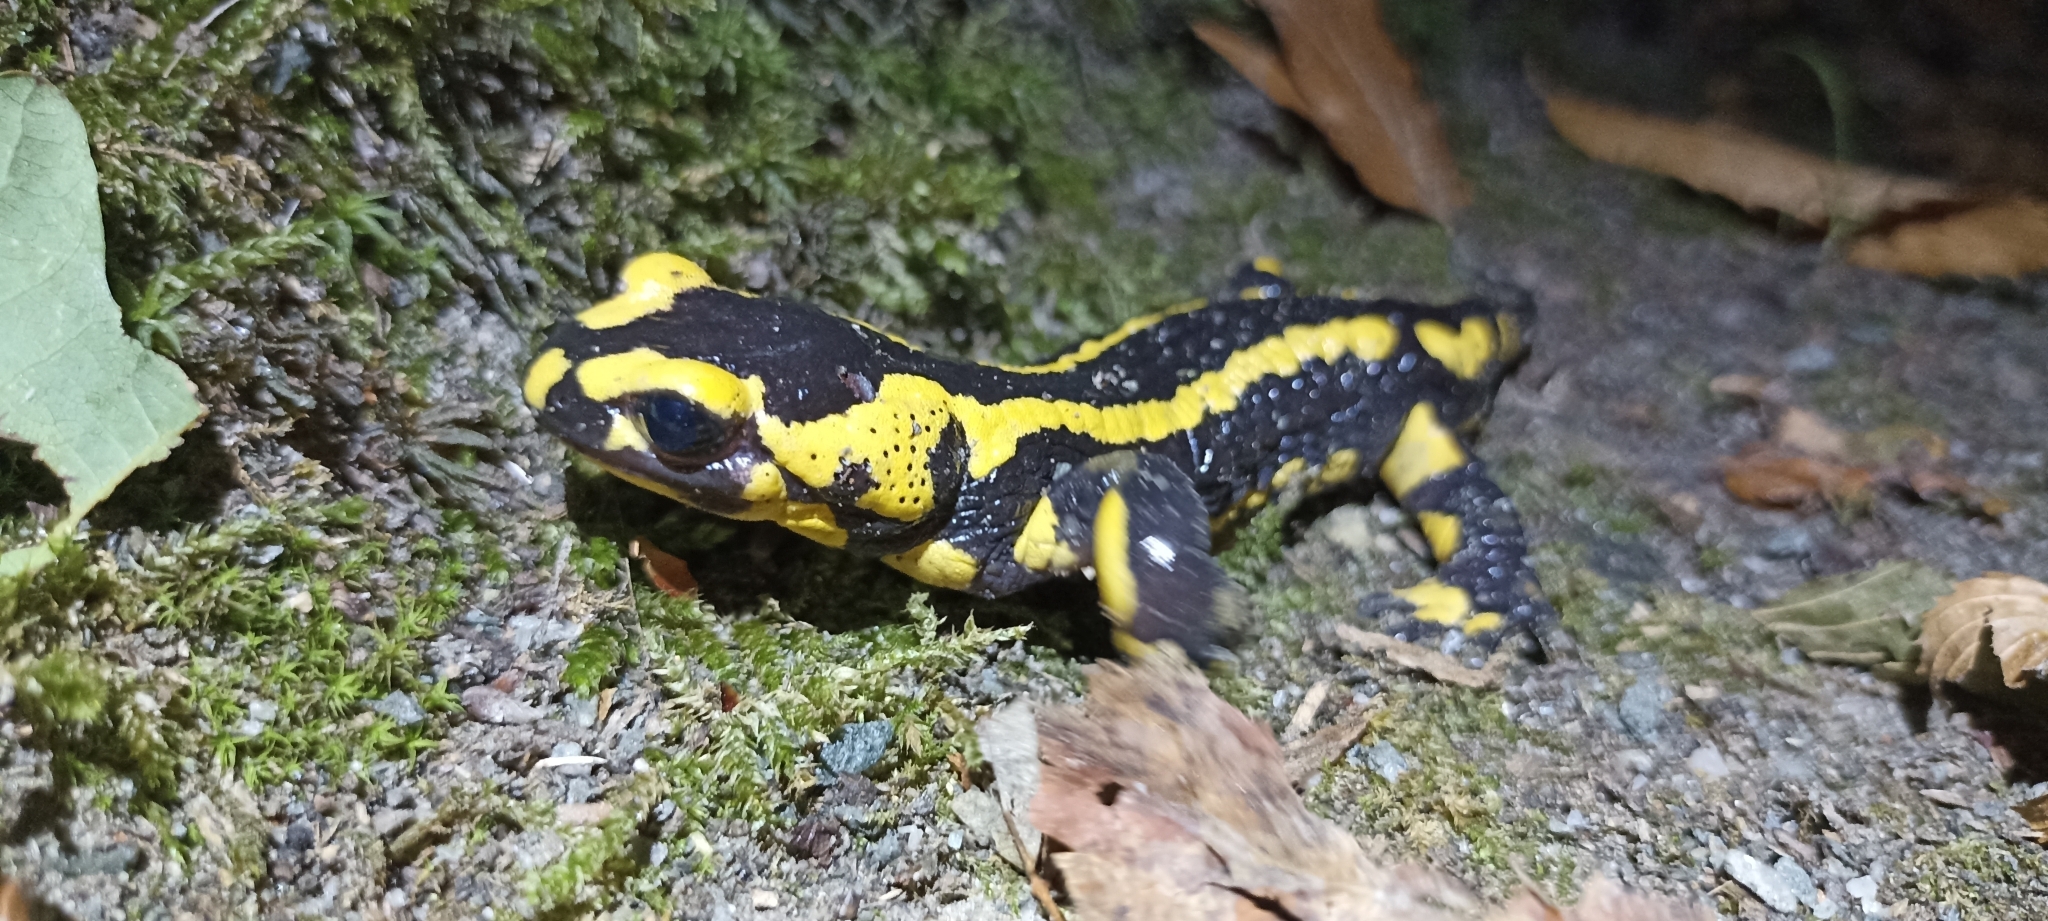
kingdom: Animalia
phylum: Chordata
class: Amphibia
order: Caudata
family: Salamandridae
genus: Salamandra
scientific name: Salamandra salamandra
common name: Fire salamander
